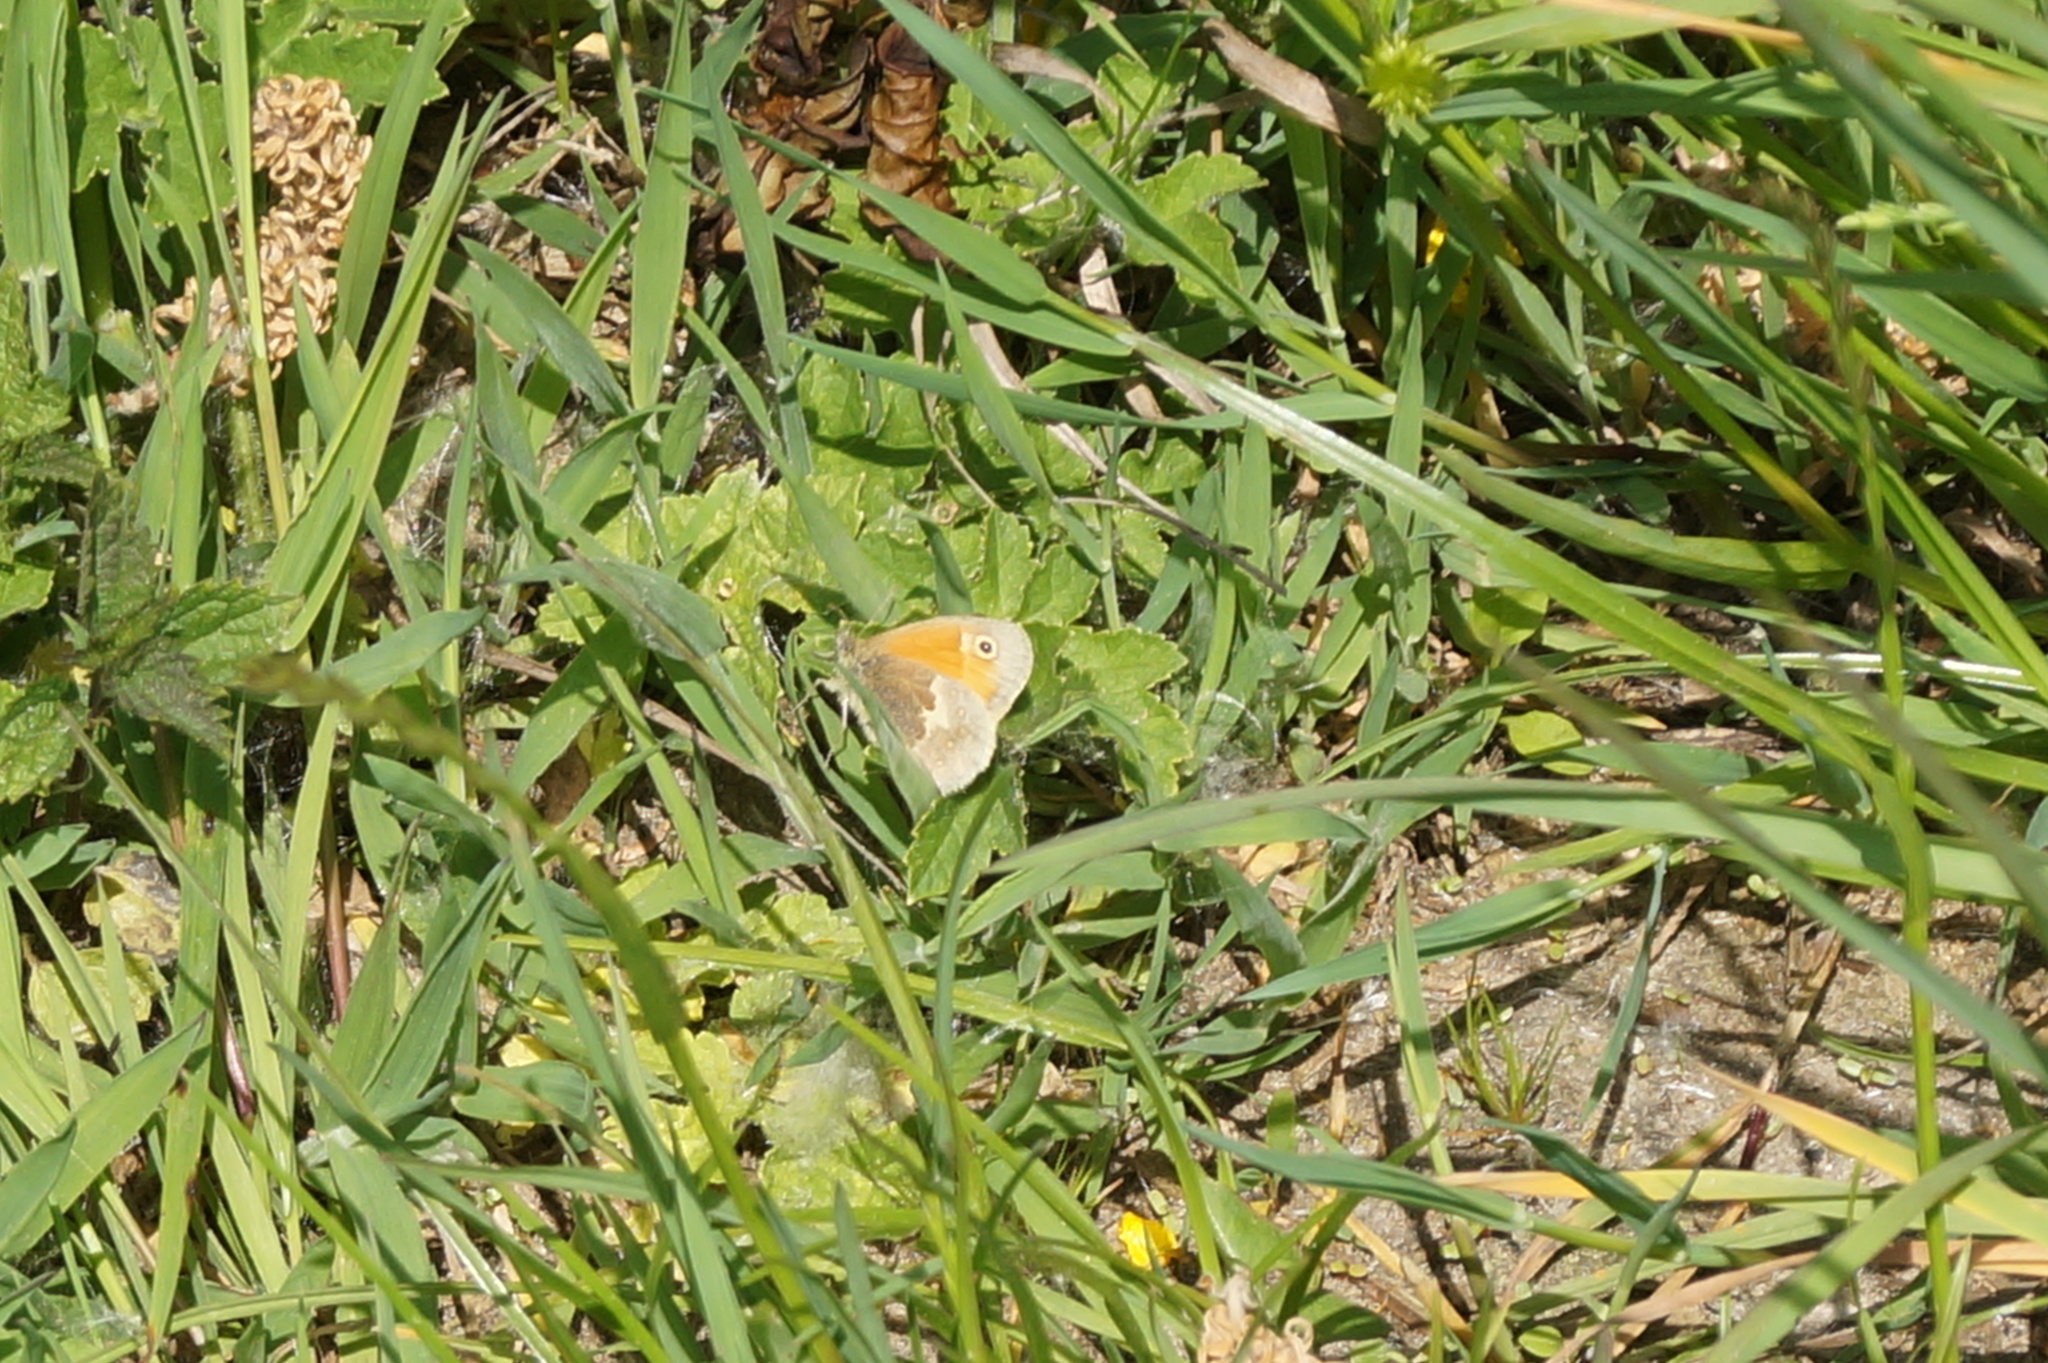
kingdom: Animalia
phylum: Arthropoda
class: Insecta
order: Lepidoptera
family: Nymphalidae
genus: Coenonympha
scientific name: Coenonympha pamphilus
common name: Small heath
